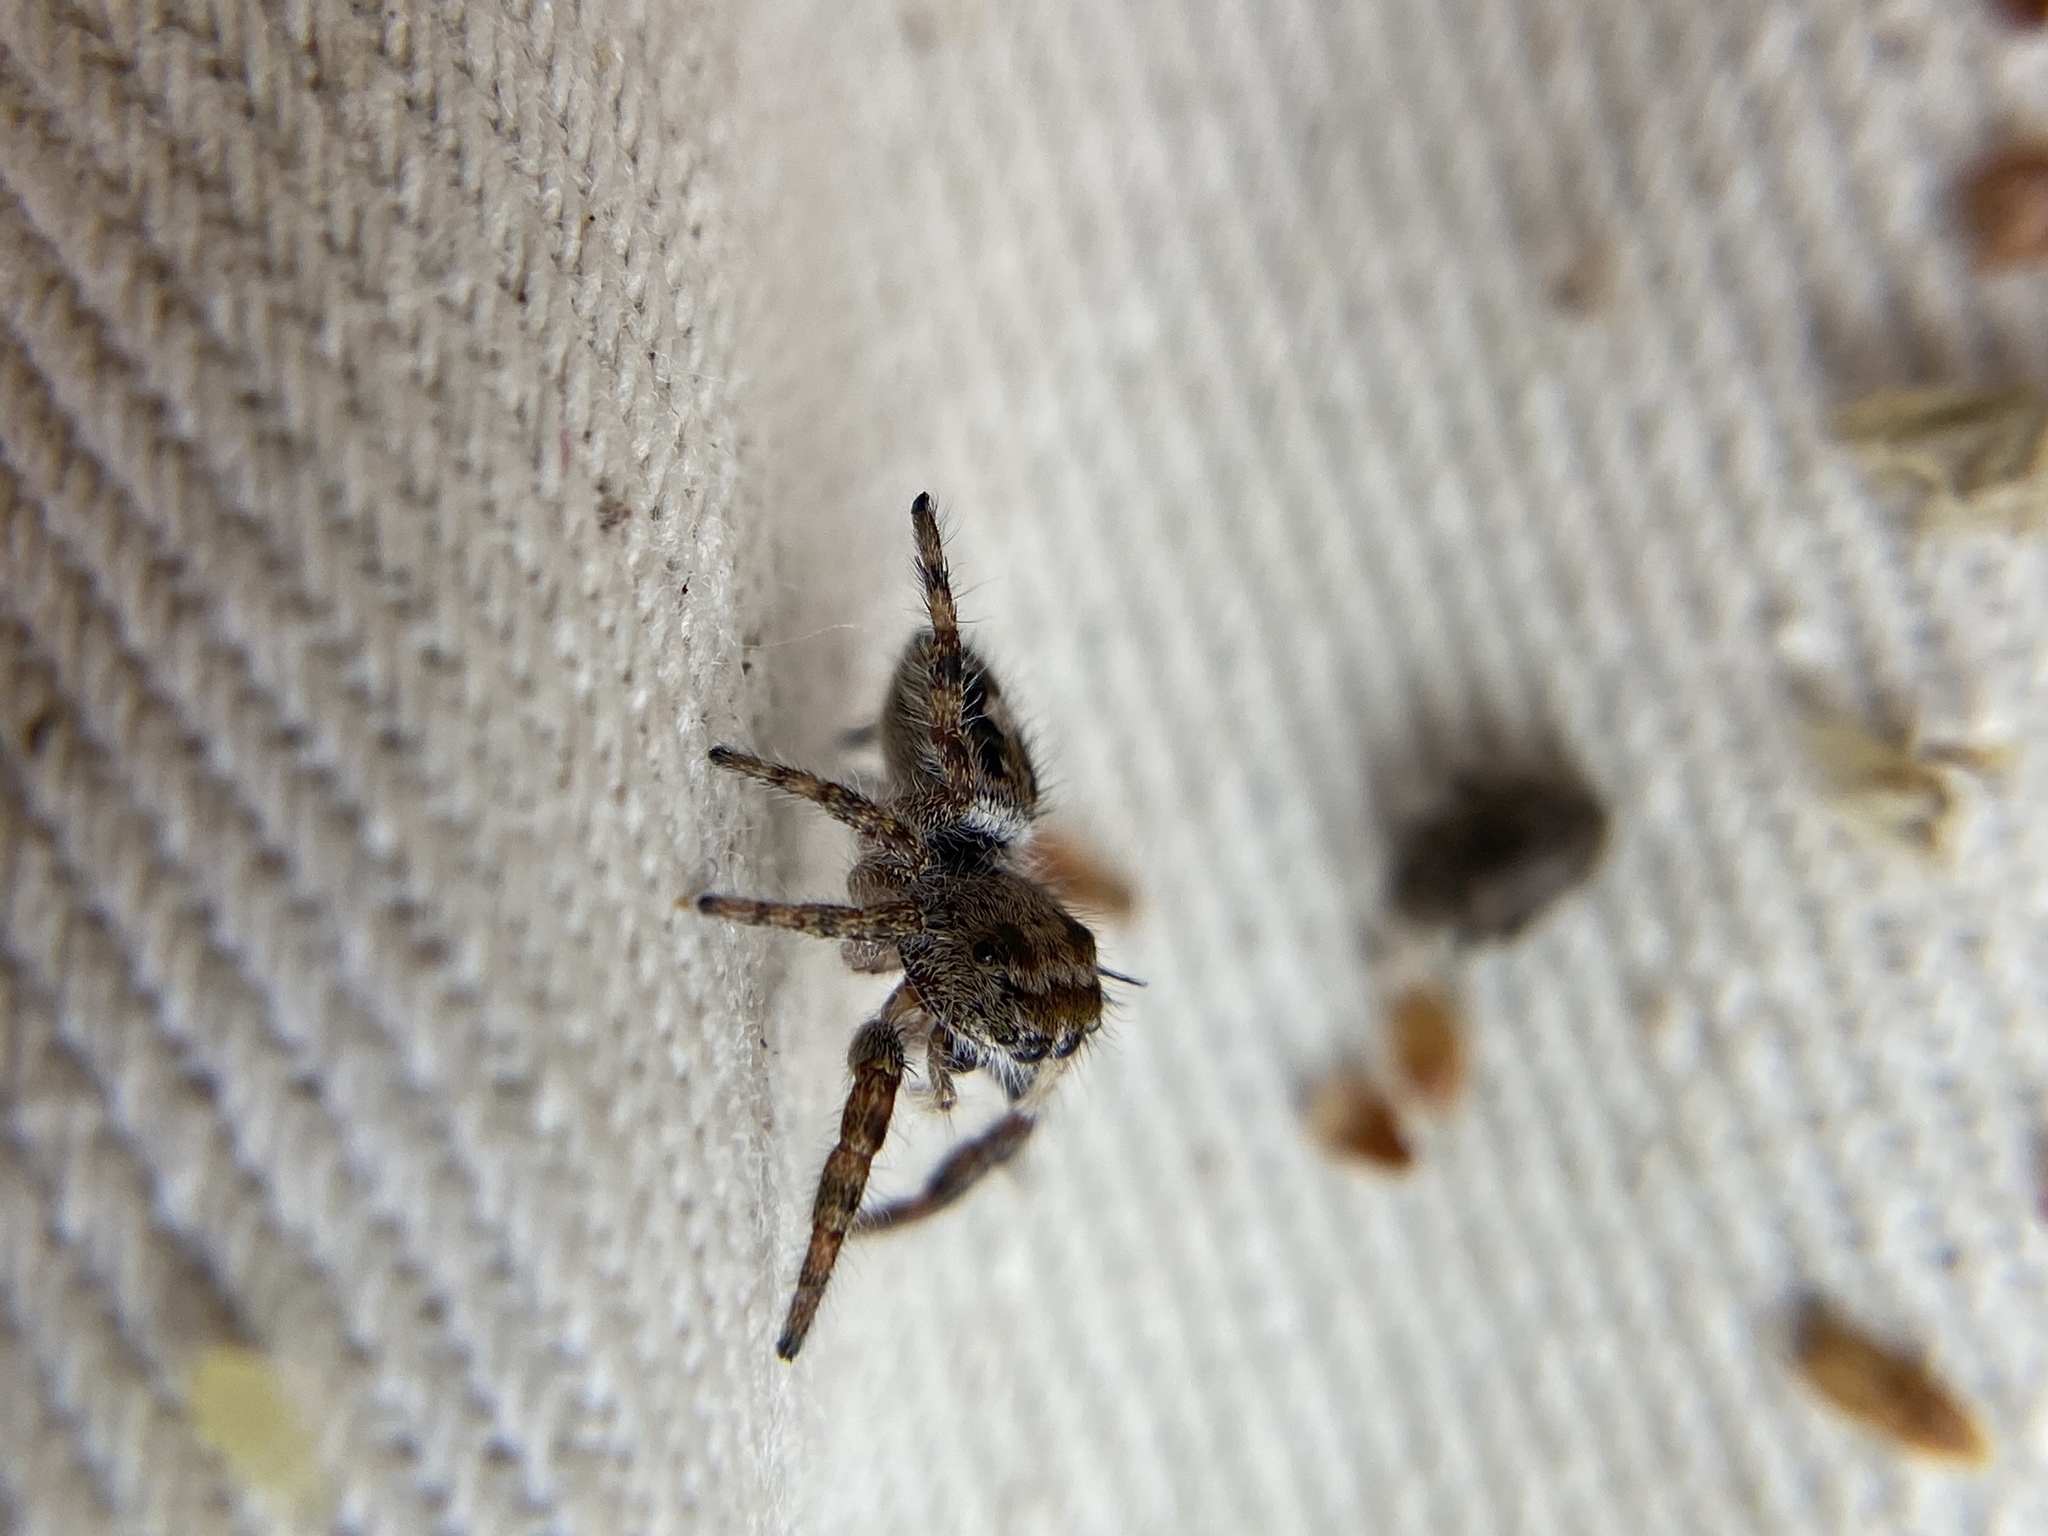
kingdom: Animalia
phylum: Arthropoda
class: Arachnida
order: Araneae
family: Salticidae
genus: Phidippus
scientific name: Phidippus putnami
